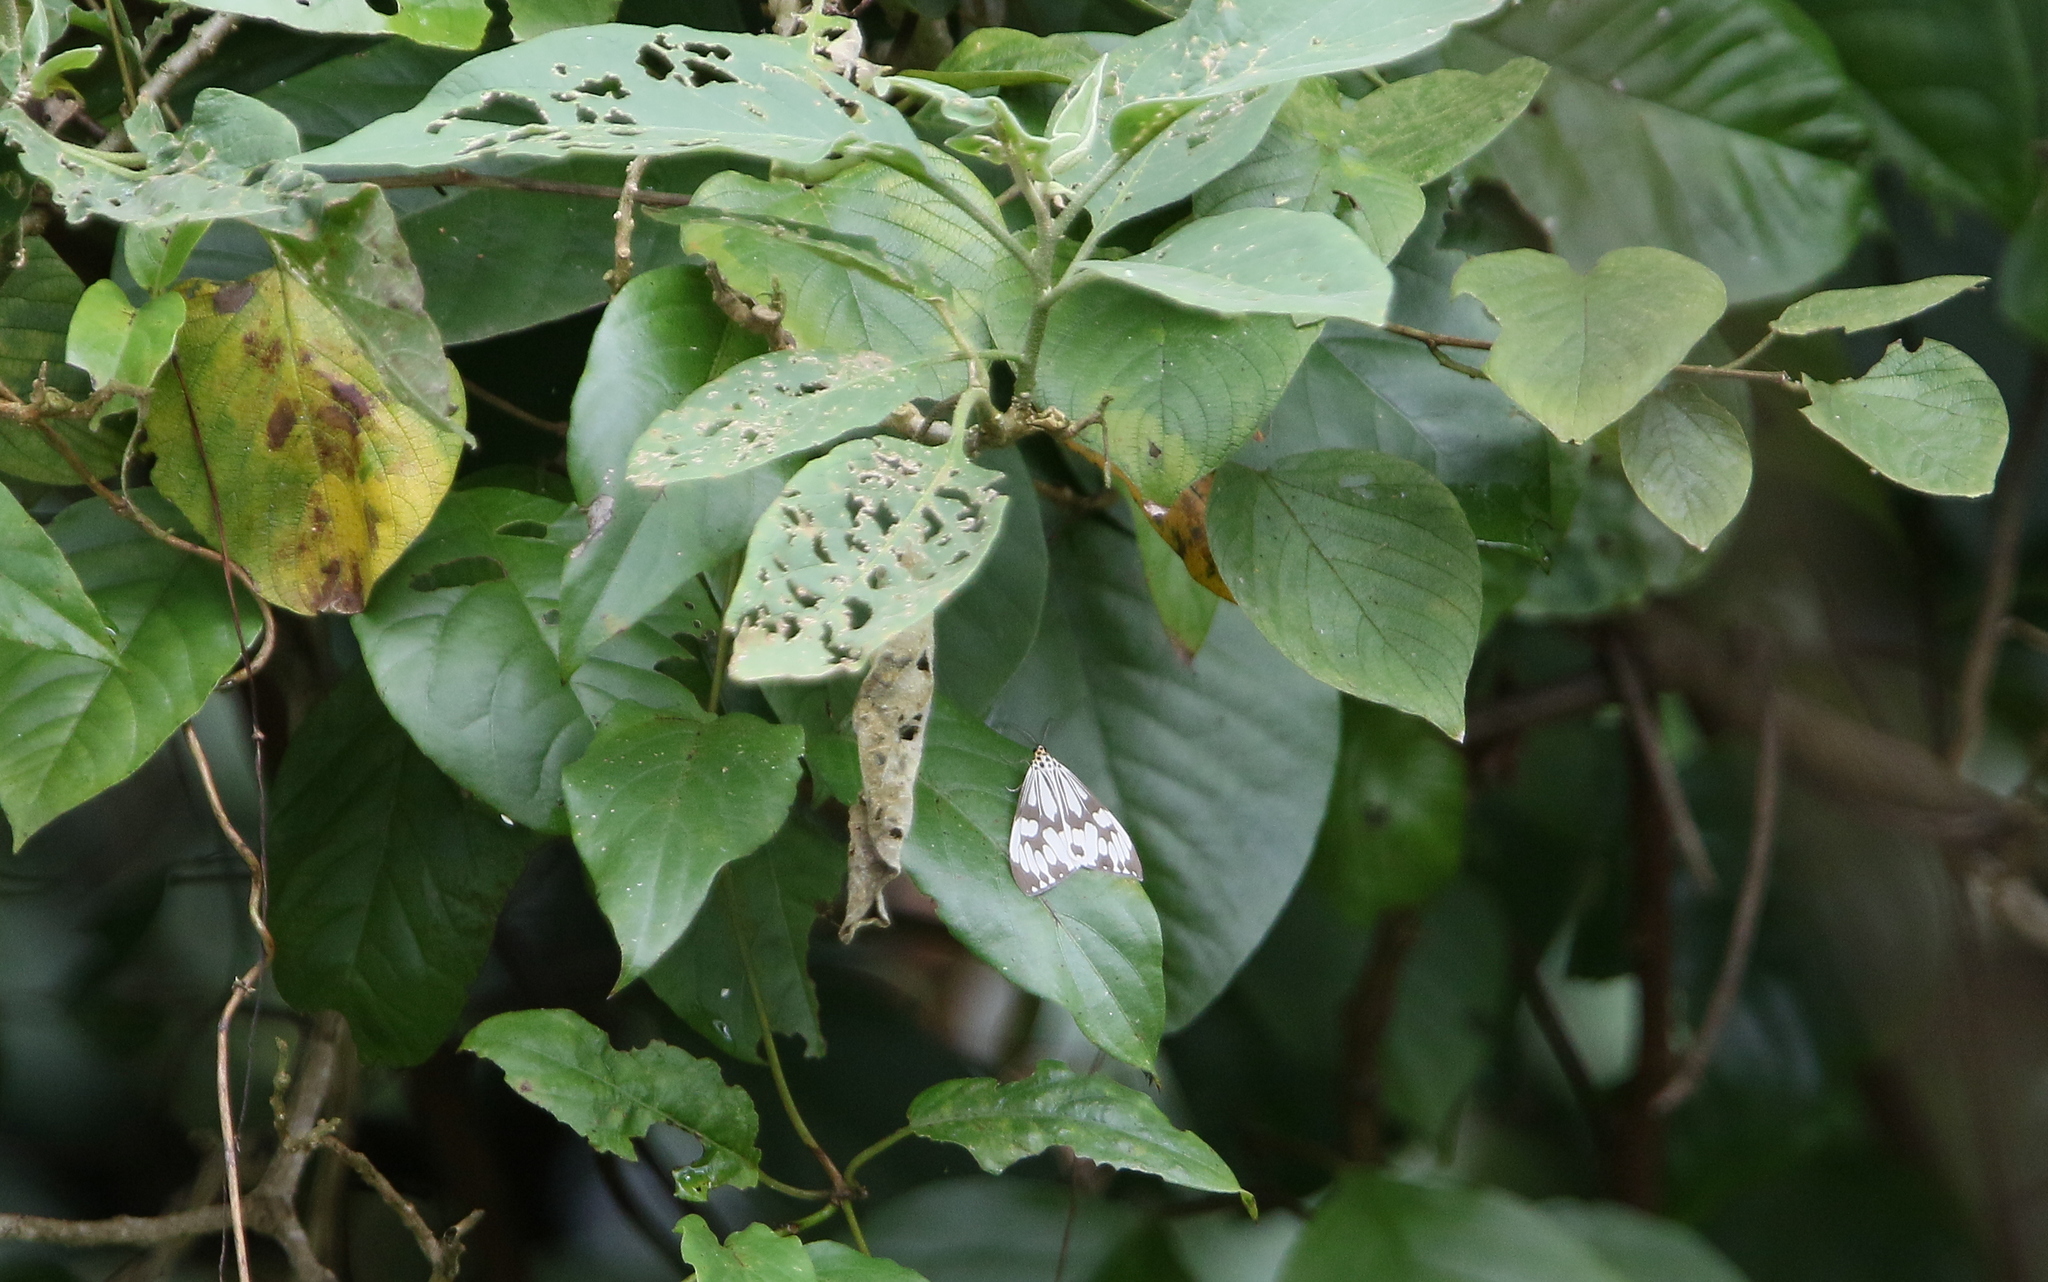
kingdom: Animalia
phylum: Arthropoda
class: Insecta
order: Lepidoptera
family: Erebidae
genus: Nyctemera
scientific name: Nyctemera adversata
